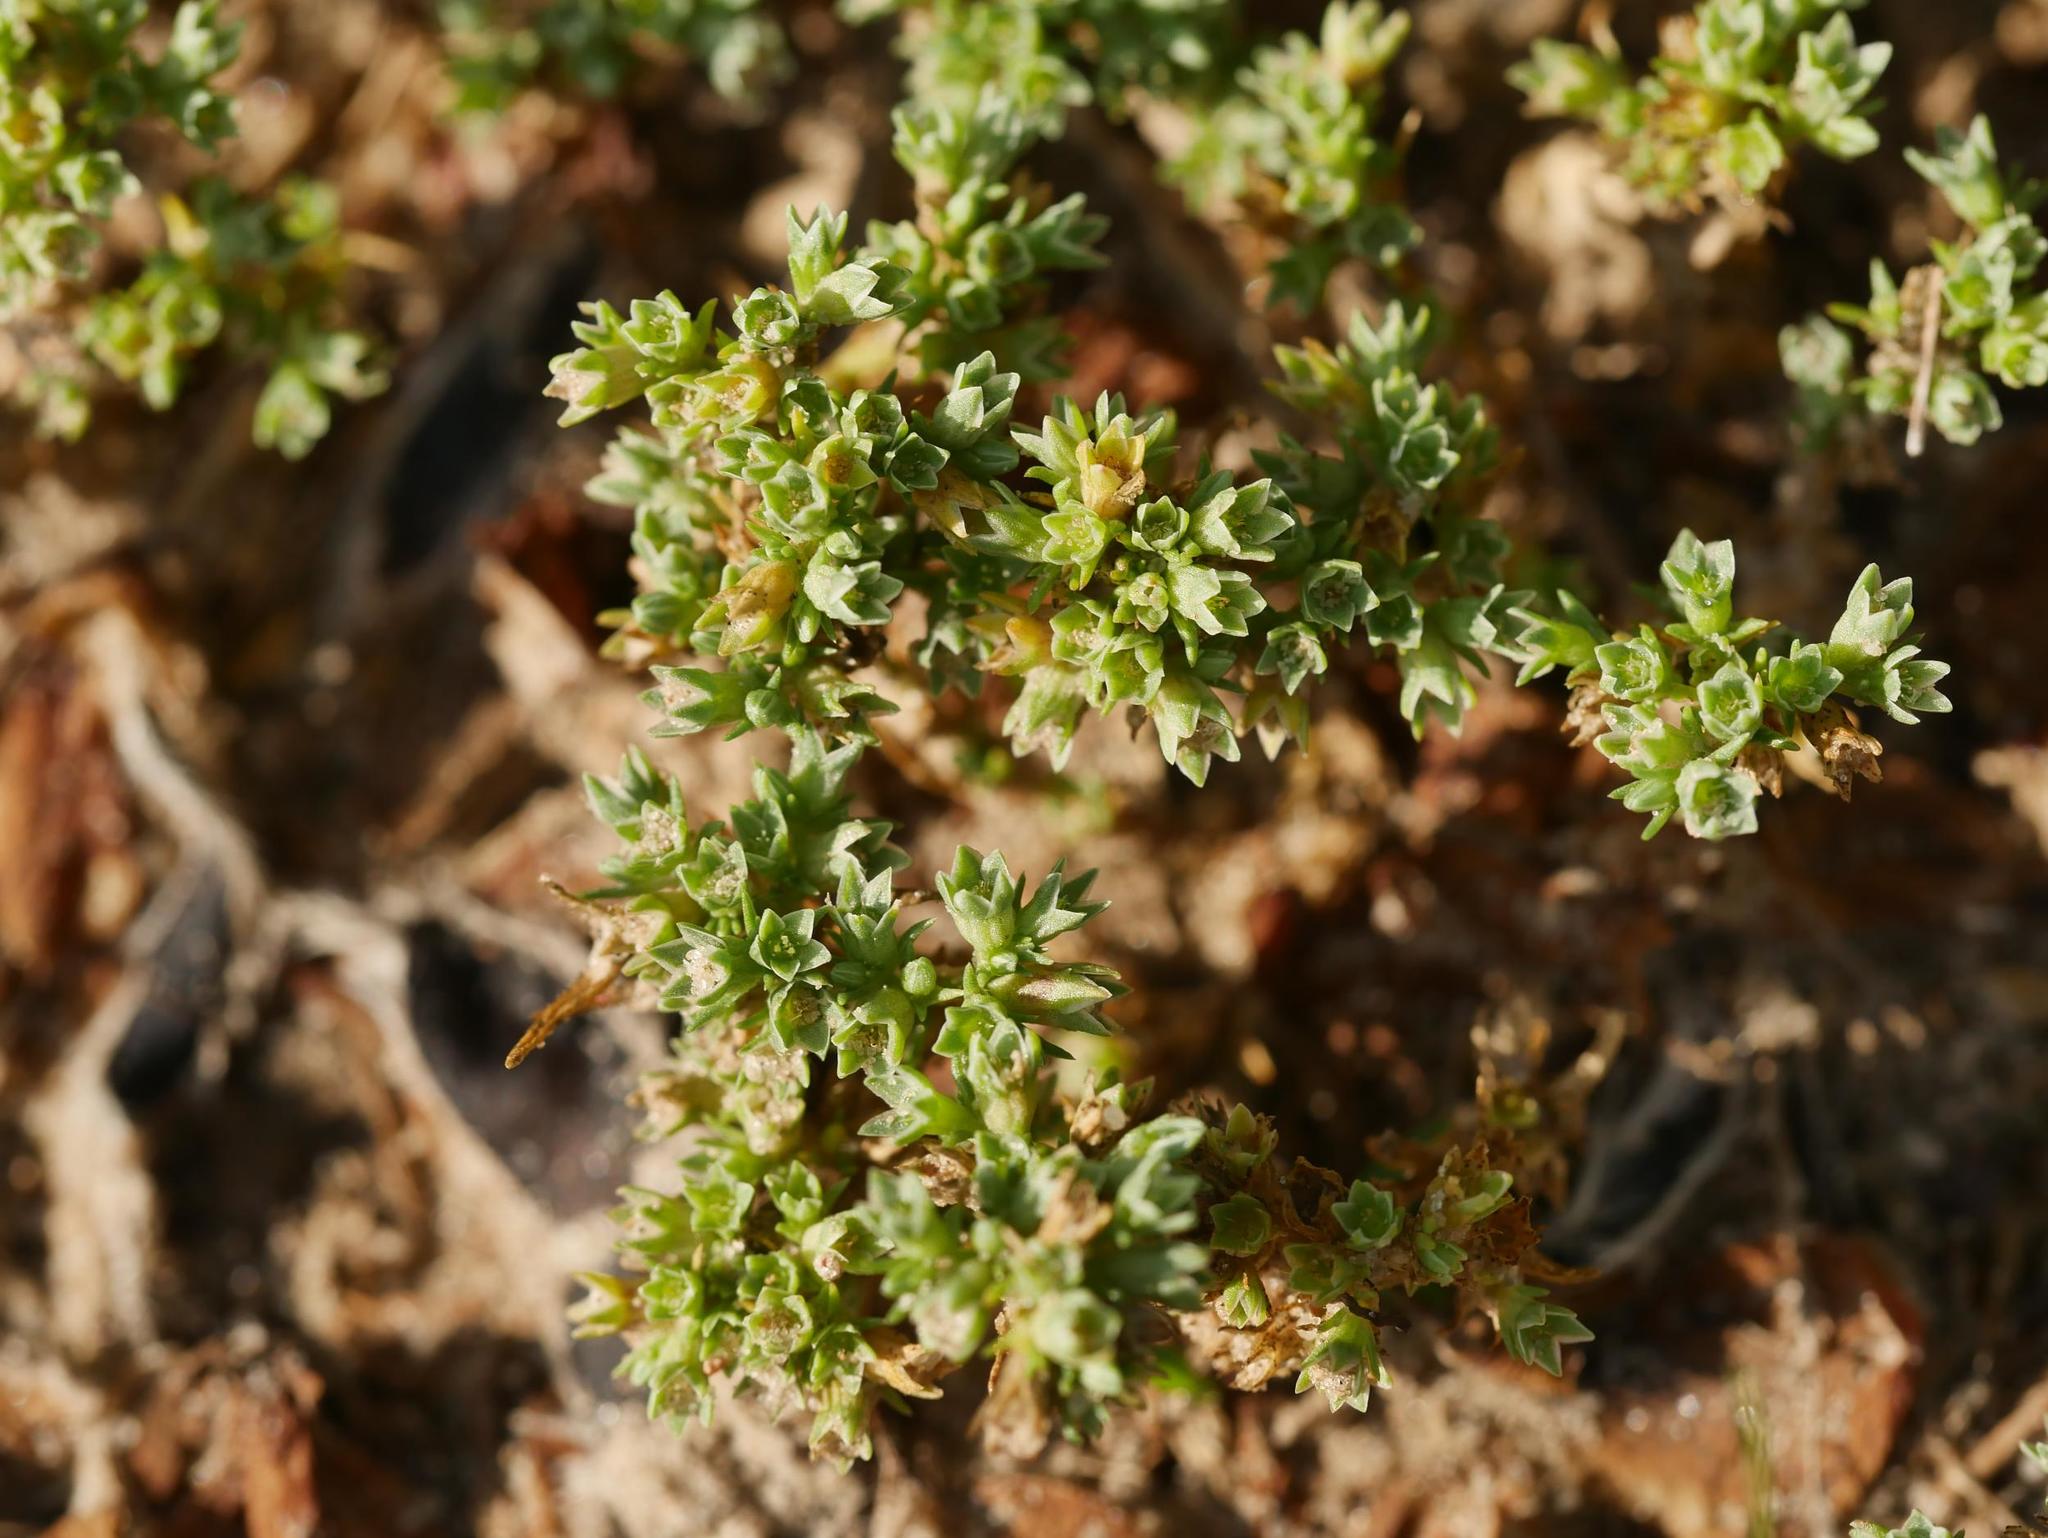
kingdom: Plantae
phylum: Tracheophyta
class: Magnoliopsida
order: Caryophyllales
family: Caryophyllaceae
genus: Scleranthus
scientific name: Scleranthus annuus
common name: Annual knawel
